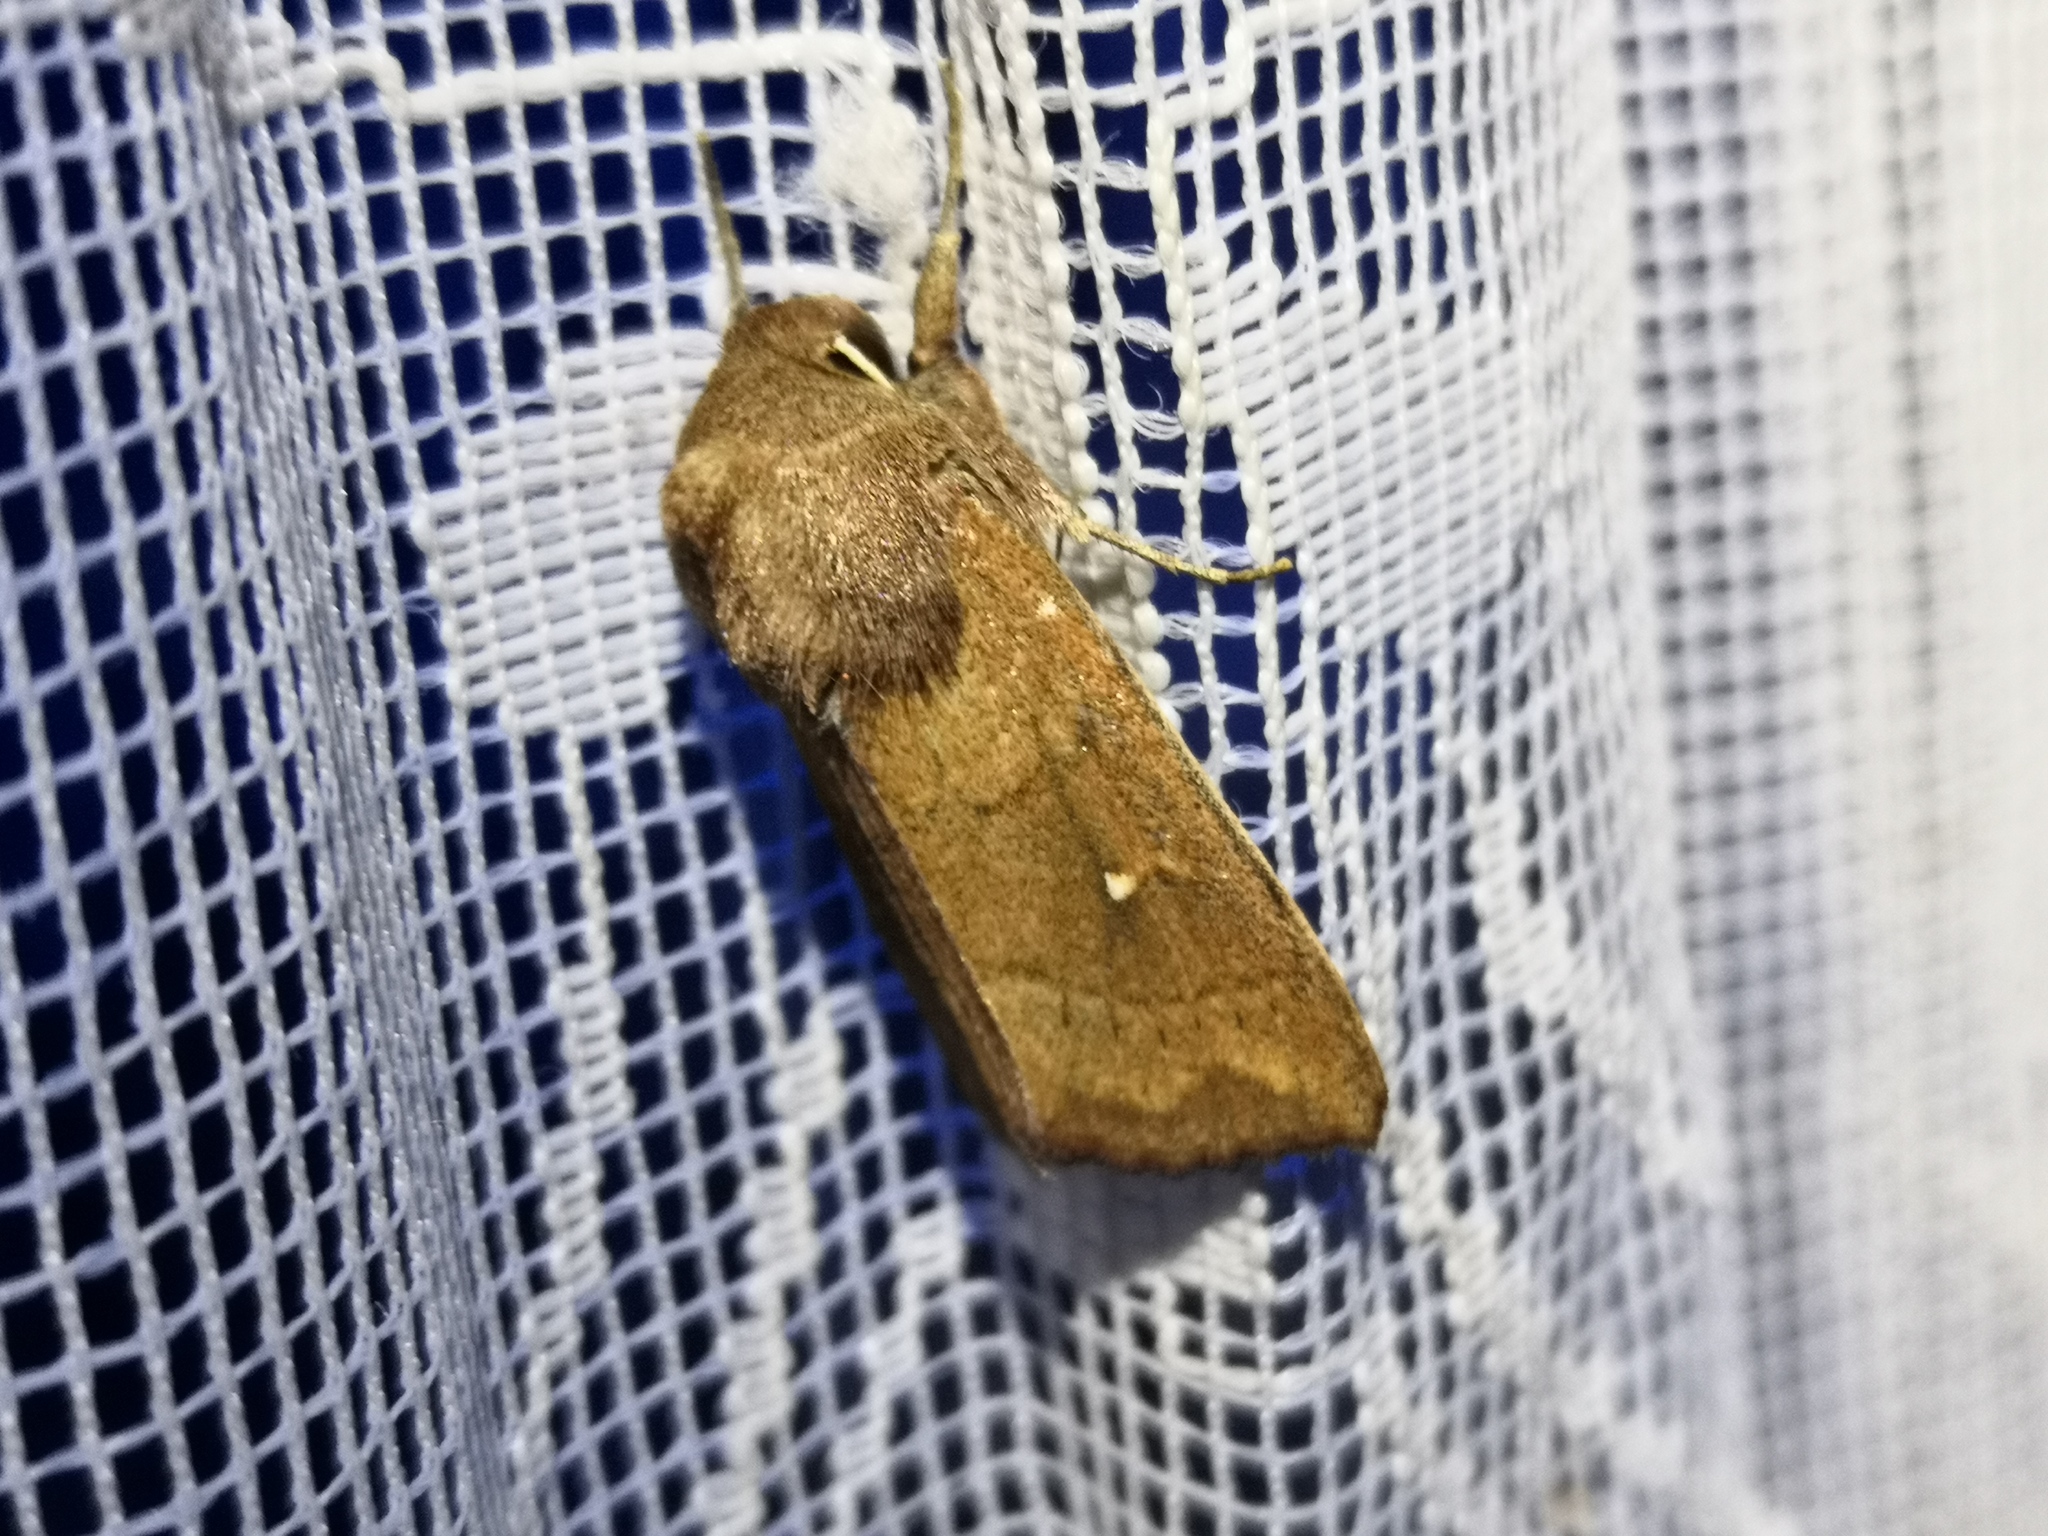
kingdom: Animalia
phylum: Arthropoda
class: Insecta
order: Lepidoptera
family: Noctuidae
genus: Mythimna
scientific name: Mythimna albipuncta
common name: White-point
